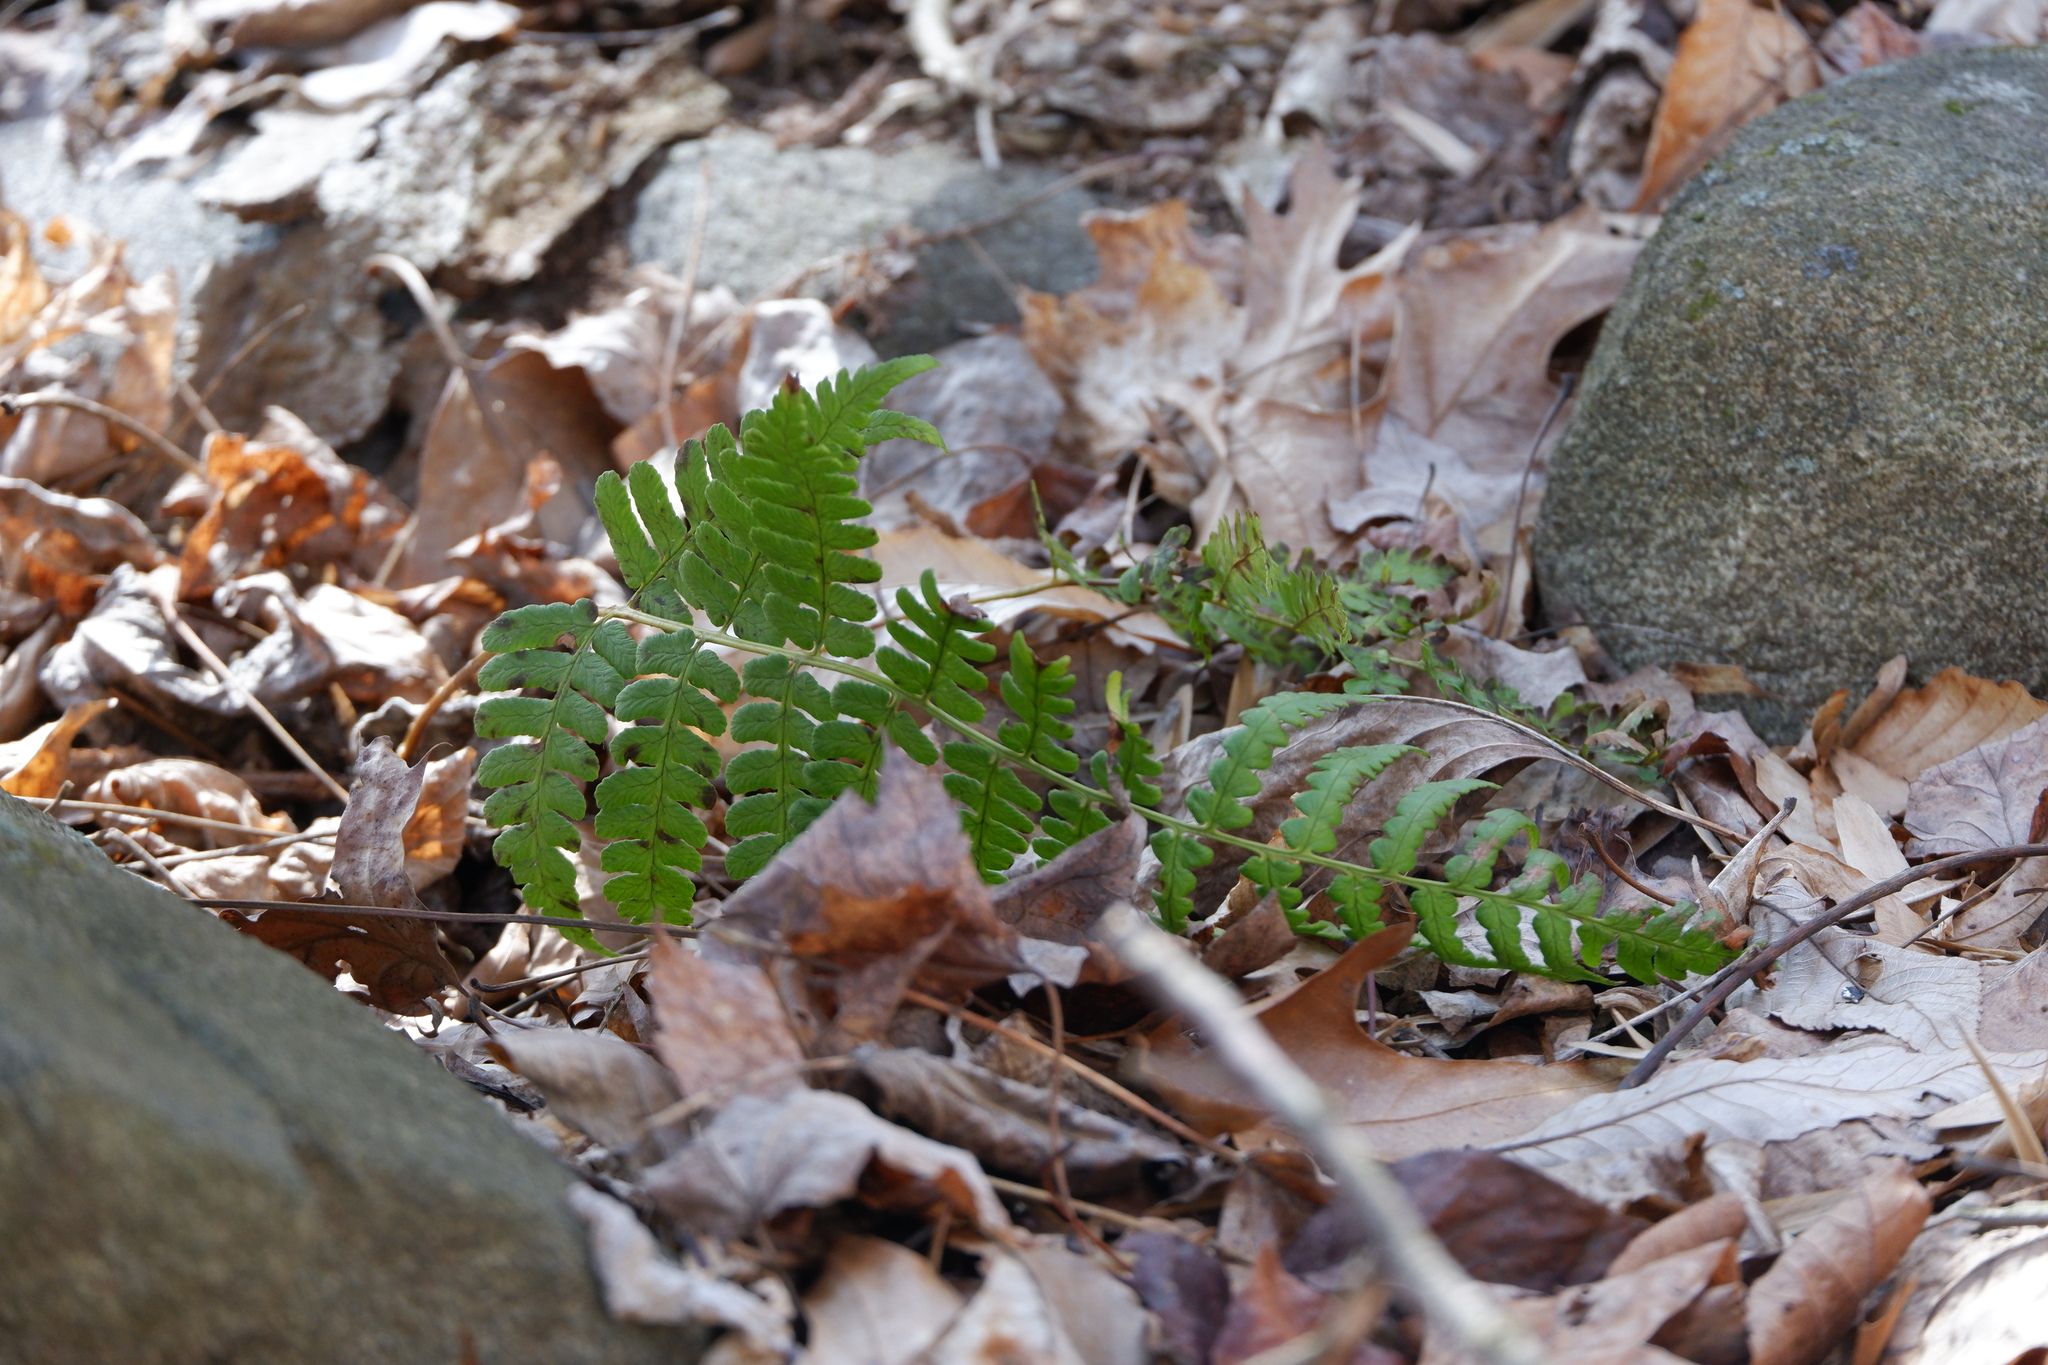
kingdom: Plantae
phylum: Tracheophyta
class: Polypodiopsida
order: Polypodiales
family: Dryopteridaceae
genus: Dryopteris
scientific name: Dryopteris marginalis
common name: Marginal wood fern
